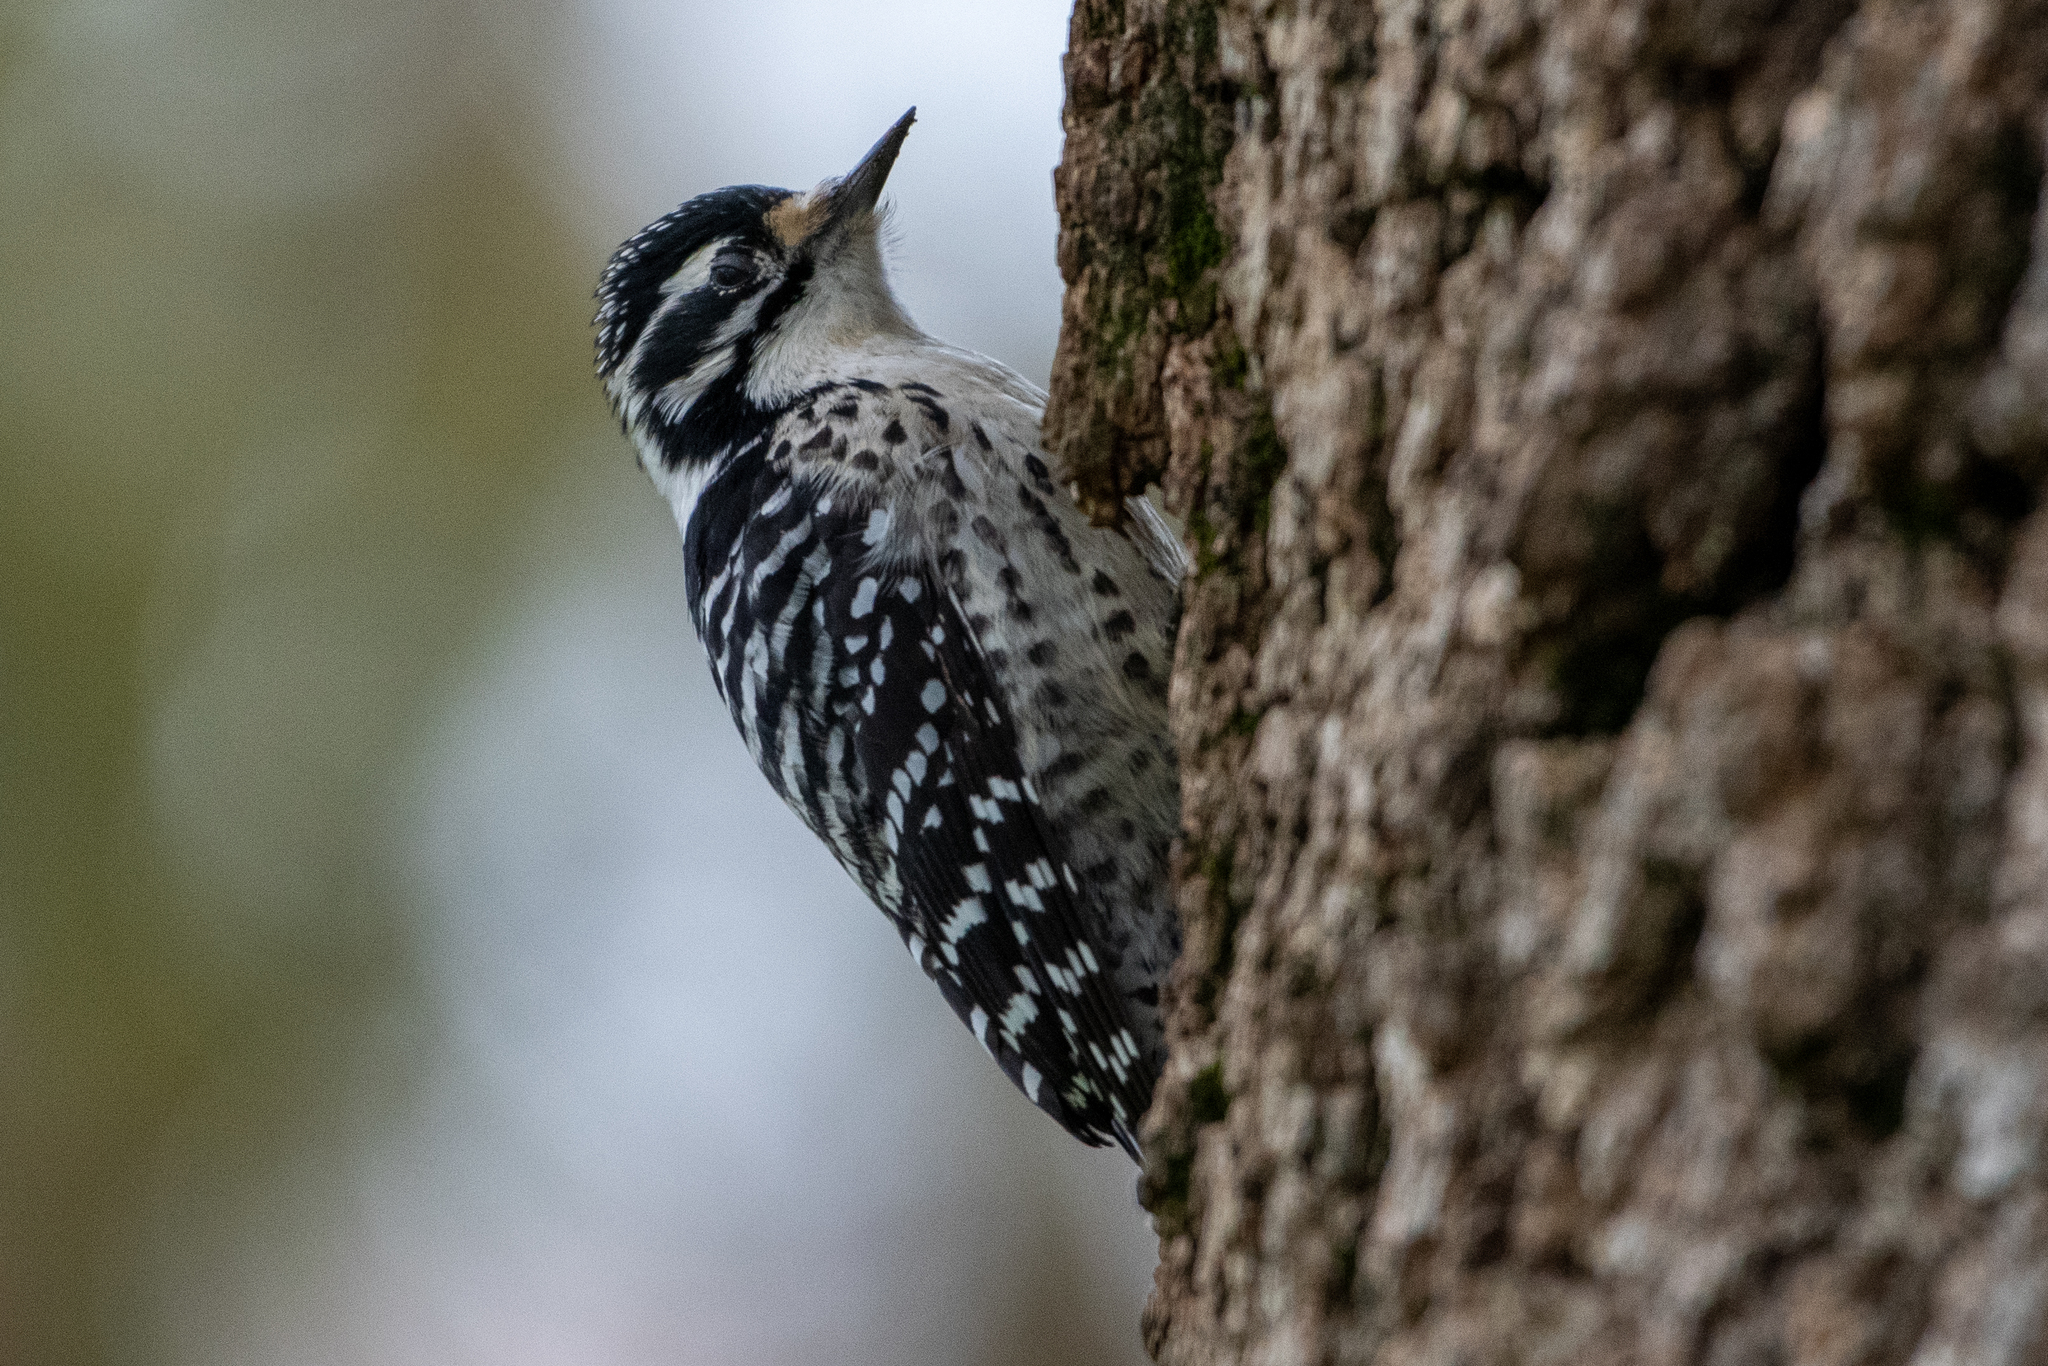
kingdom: Animalia
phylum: Chordata
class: Aves
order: Piciformes
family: Picidae
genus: Dryobates
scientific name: Dryobates nuttallii
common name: Nuttall's woodpecker
